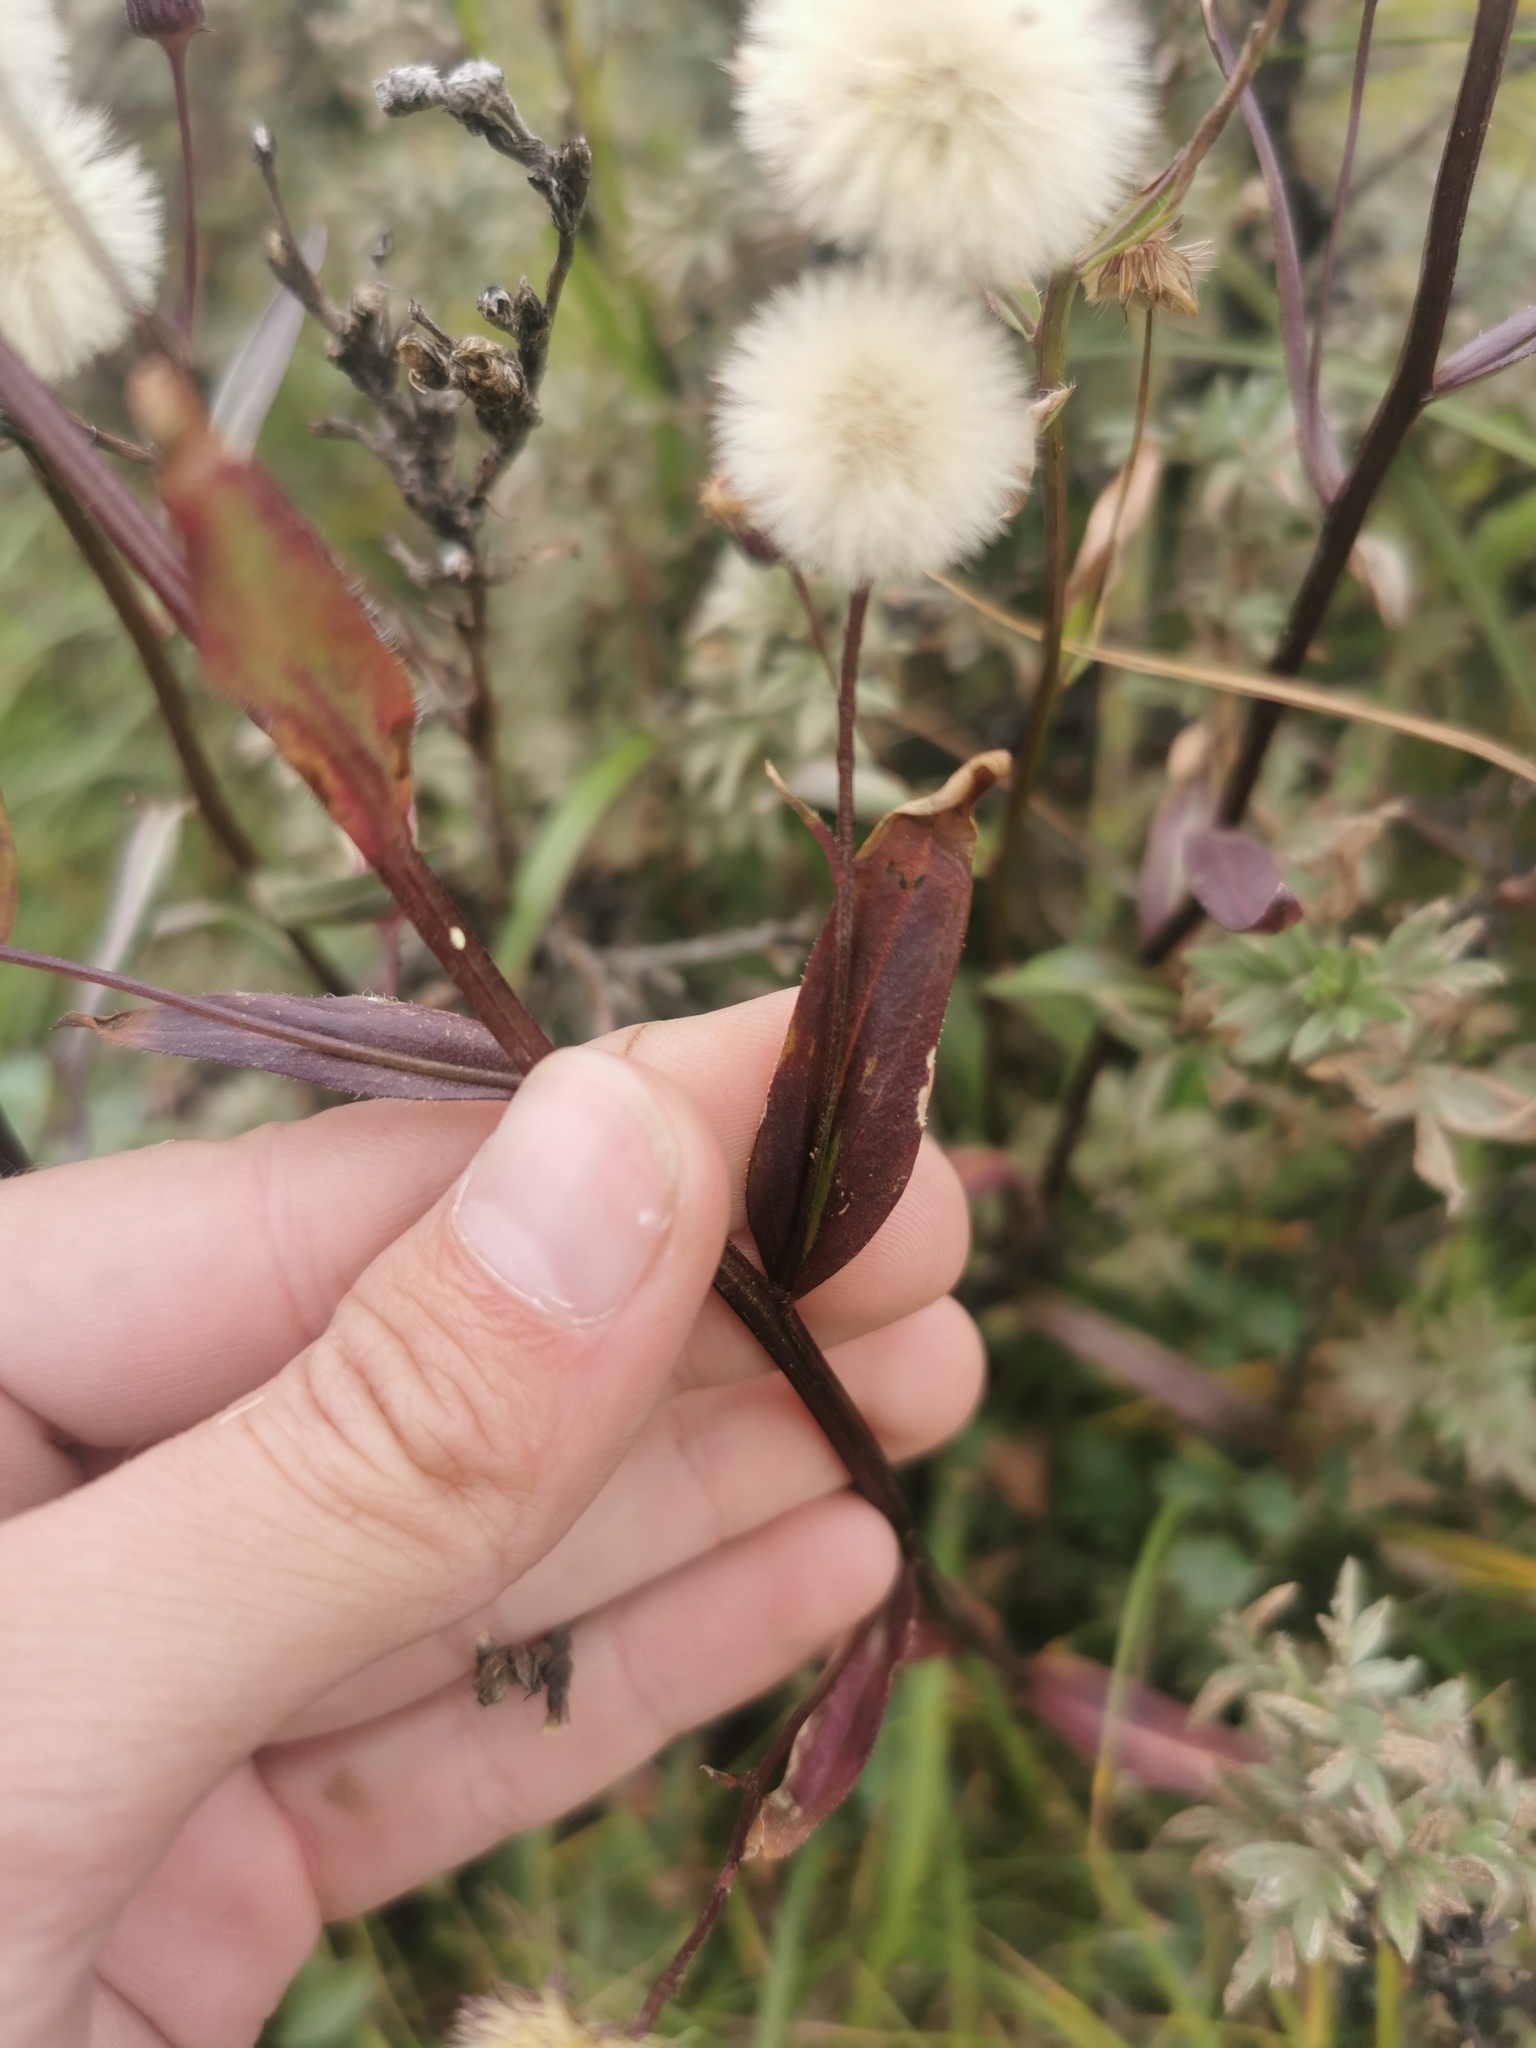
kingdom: Plantae
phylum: Tracheophyta
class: Magnoliopsida
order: Asterales
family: Asteraceae
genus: Erigeron
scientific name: Erigeron kamtschaticus
